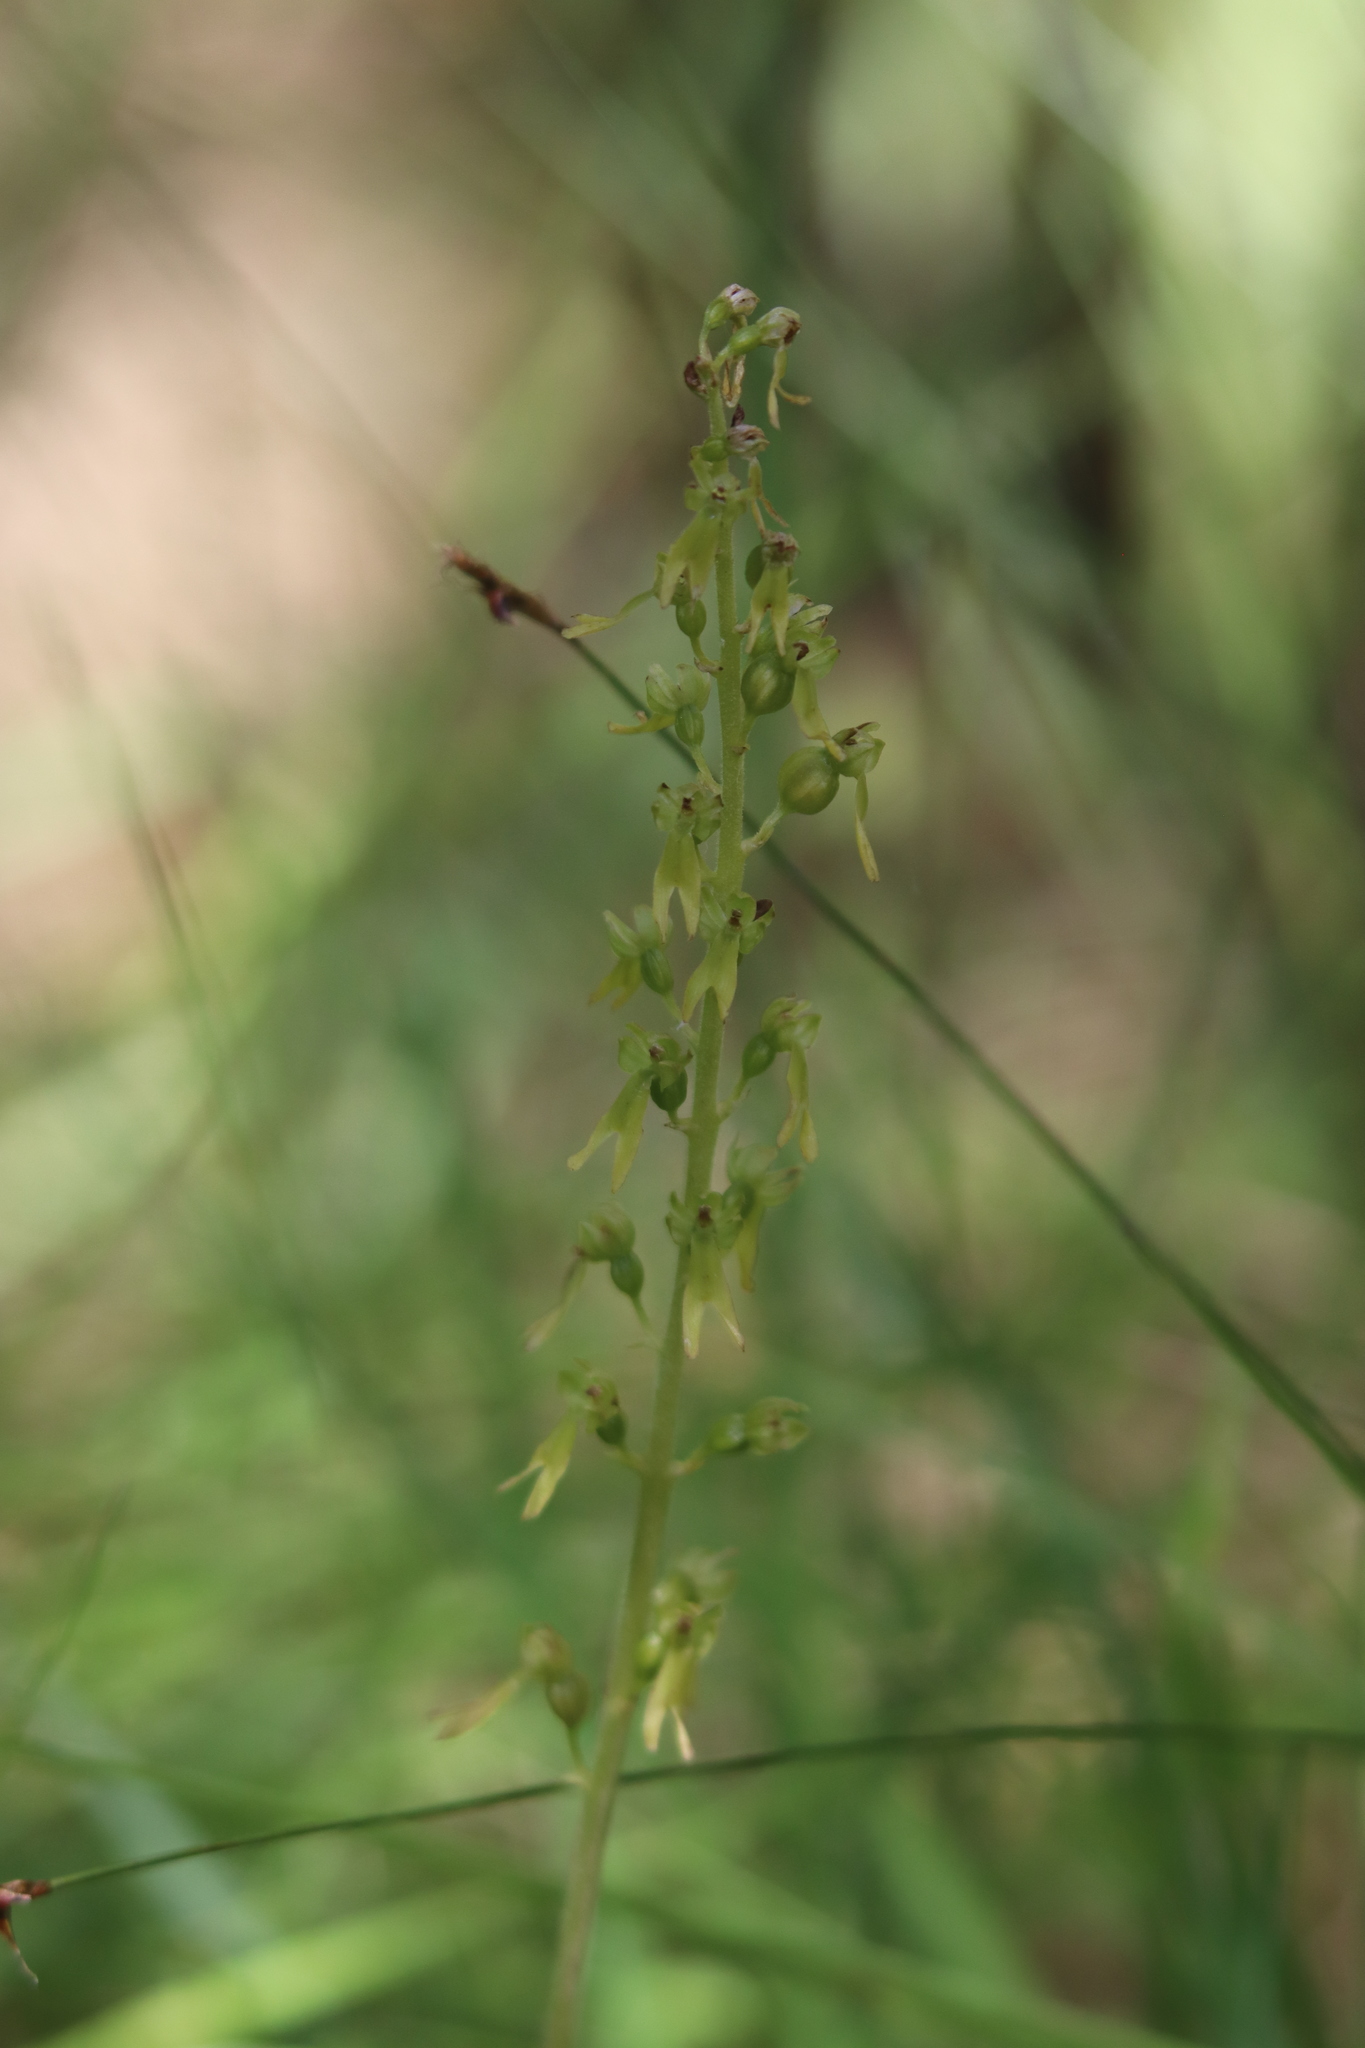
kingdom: Plantae
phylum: Tracheophyta
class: Liliopsida
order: Asparagales
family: Orchidaceae
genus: Neottia
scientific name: Neottia ovata
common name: Common twayblade
